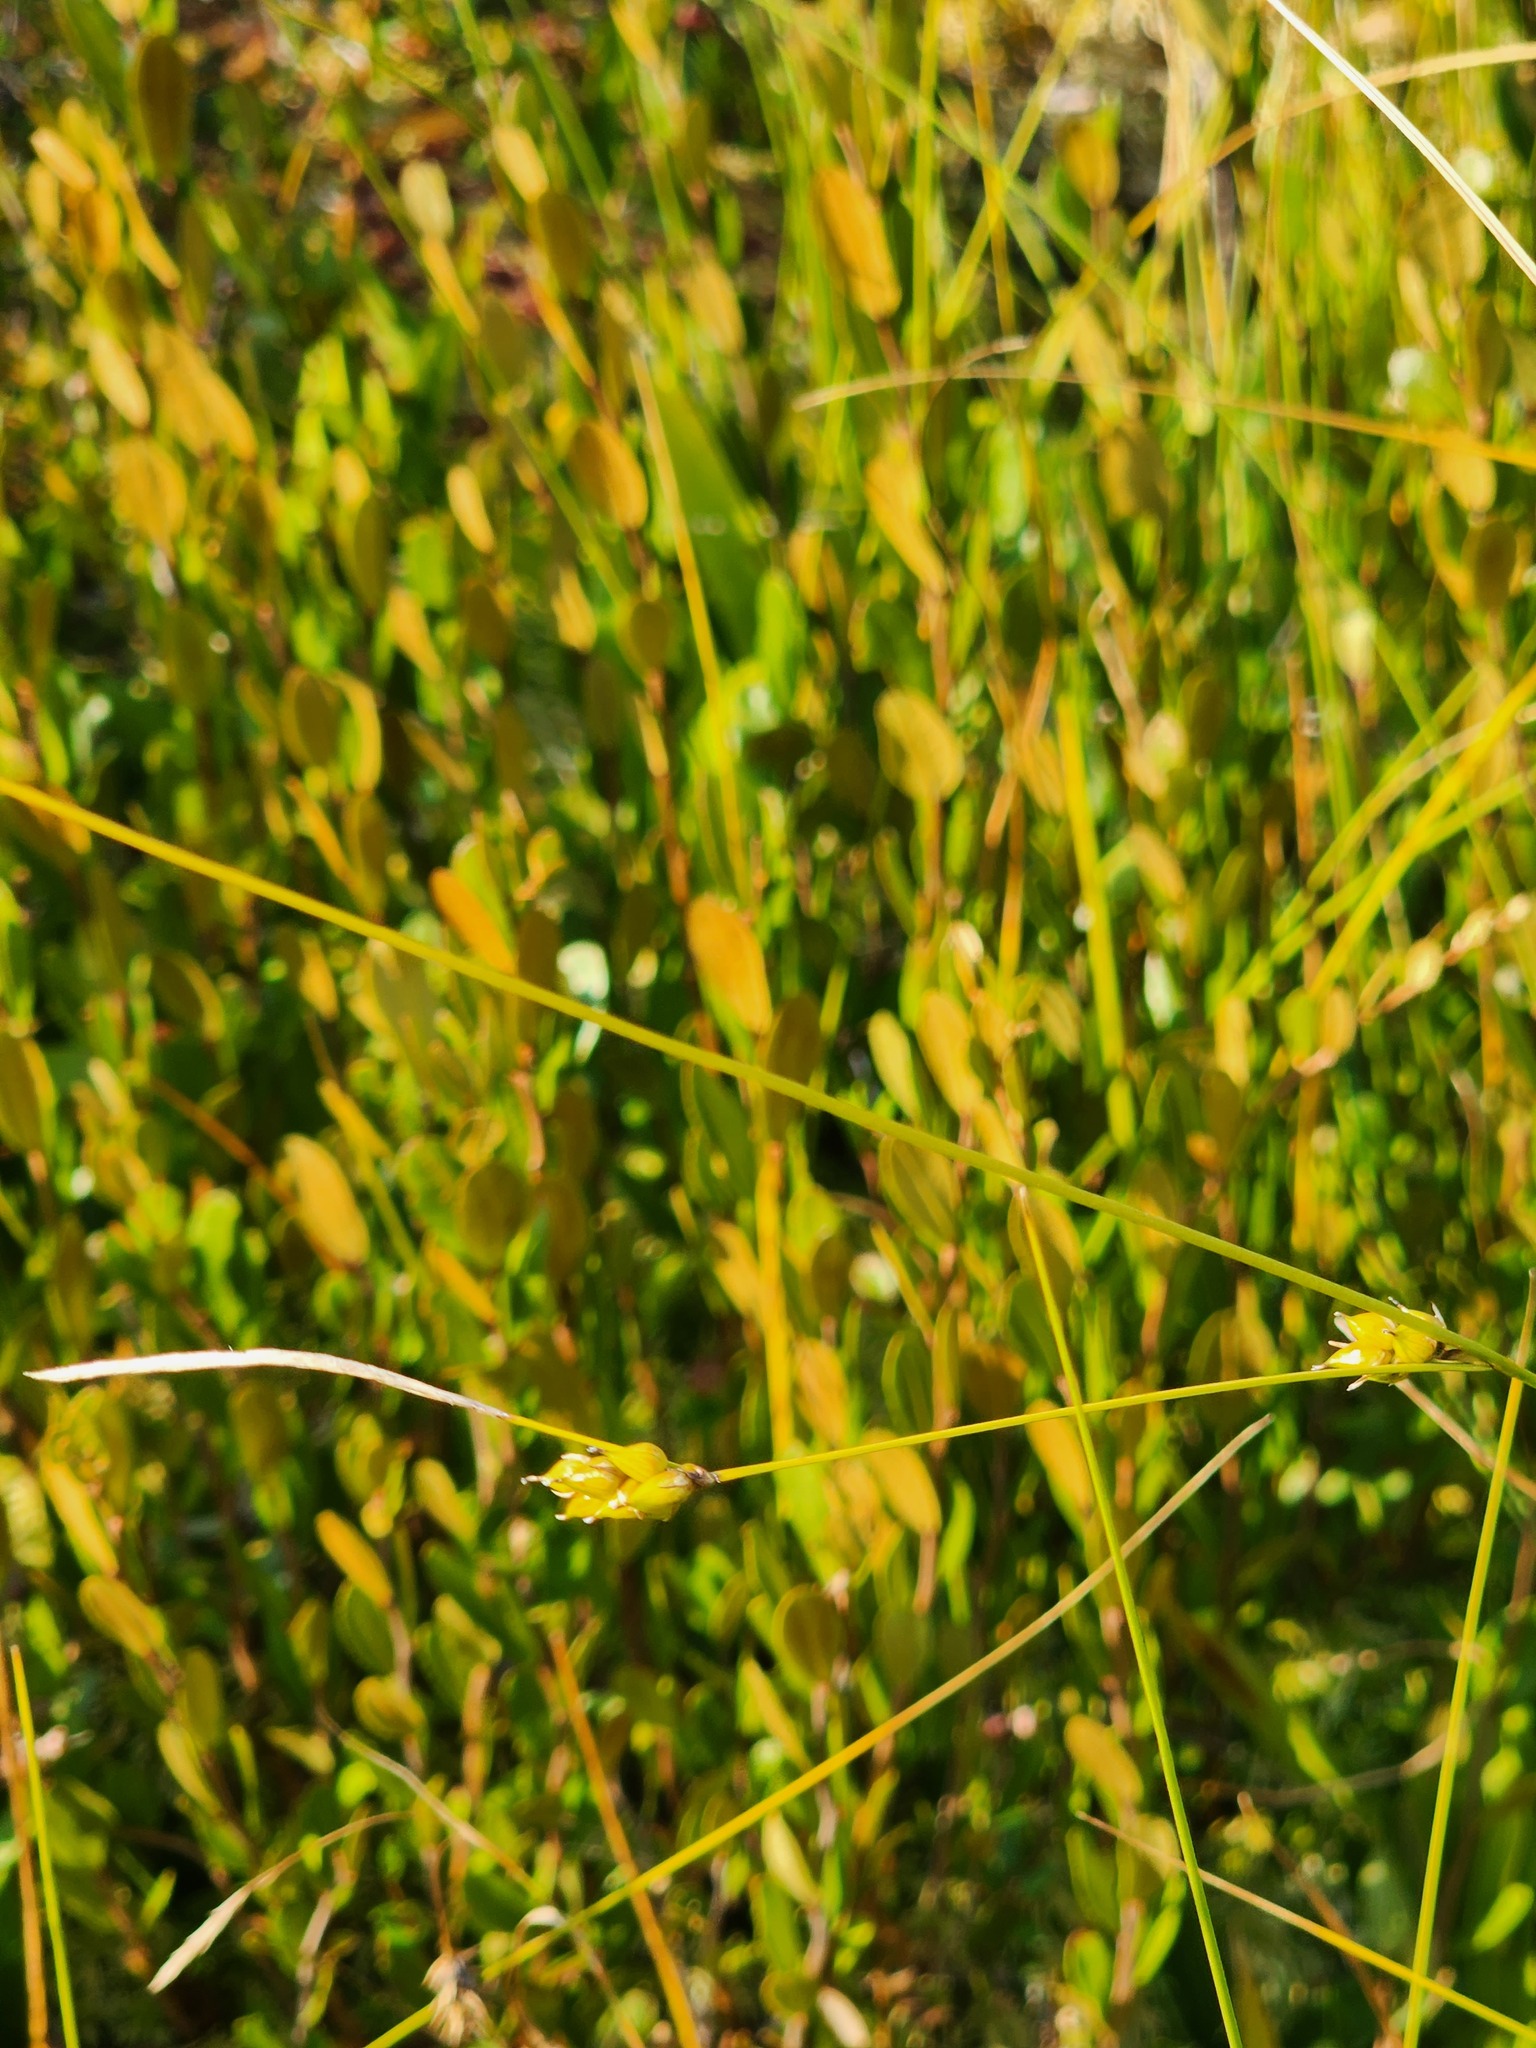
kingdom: Plantae
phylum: Tracheophyta
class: Liliopsida
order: Poales
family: Cyperaceae
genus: Carex
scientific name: Carex oligosperma
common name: Few-seed sedge
